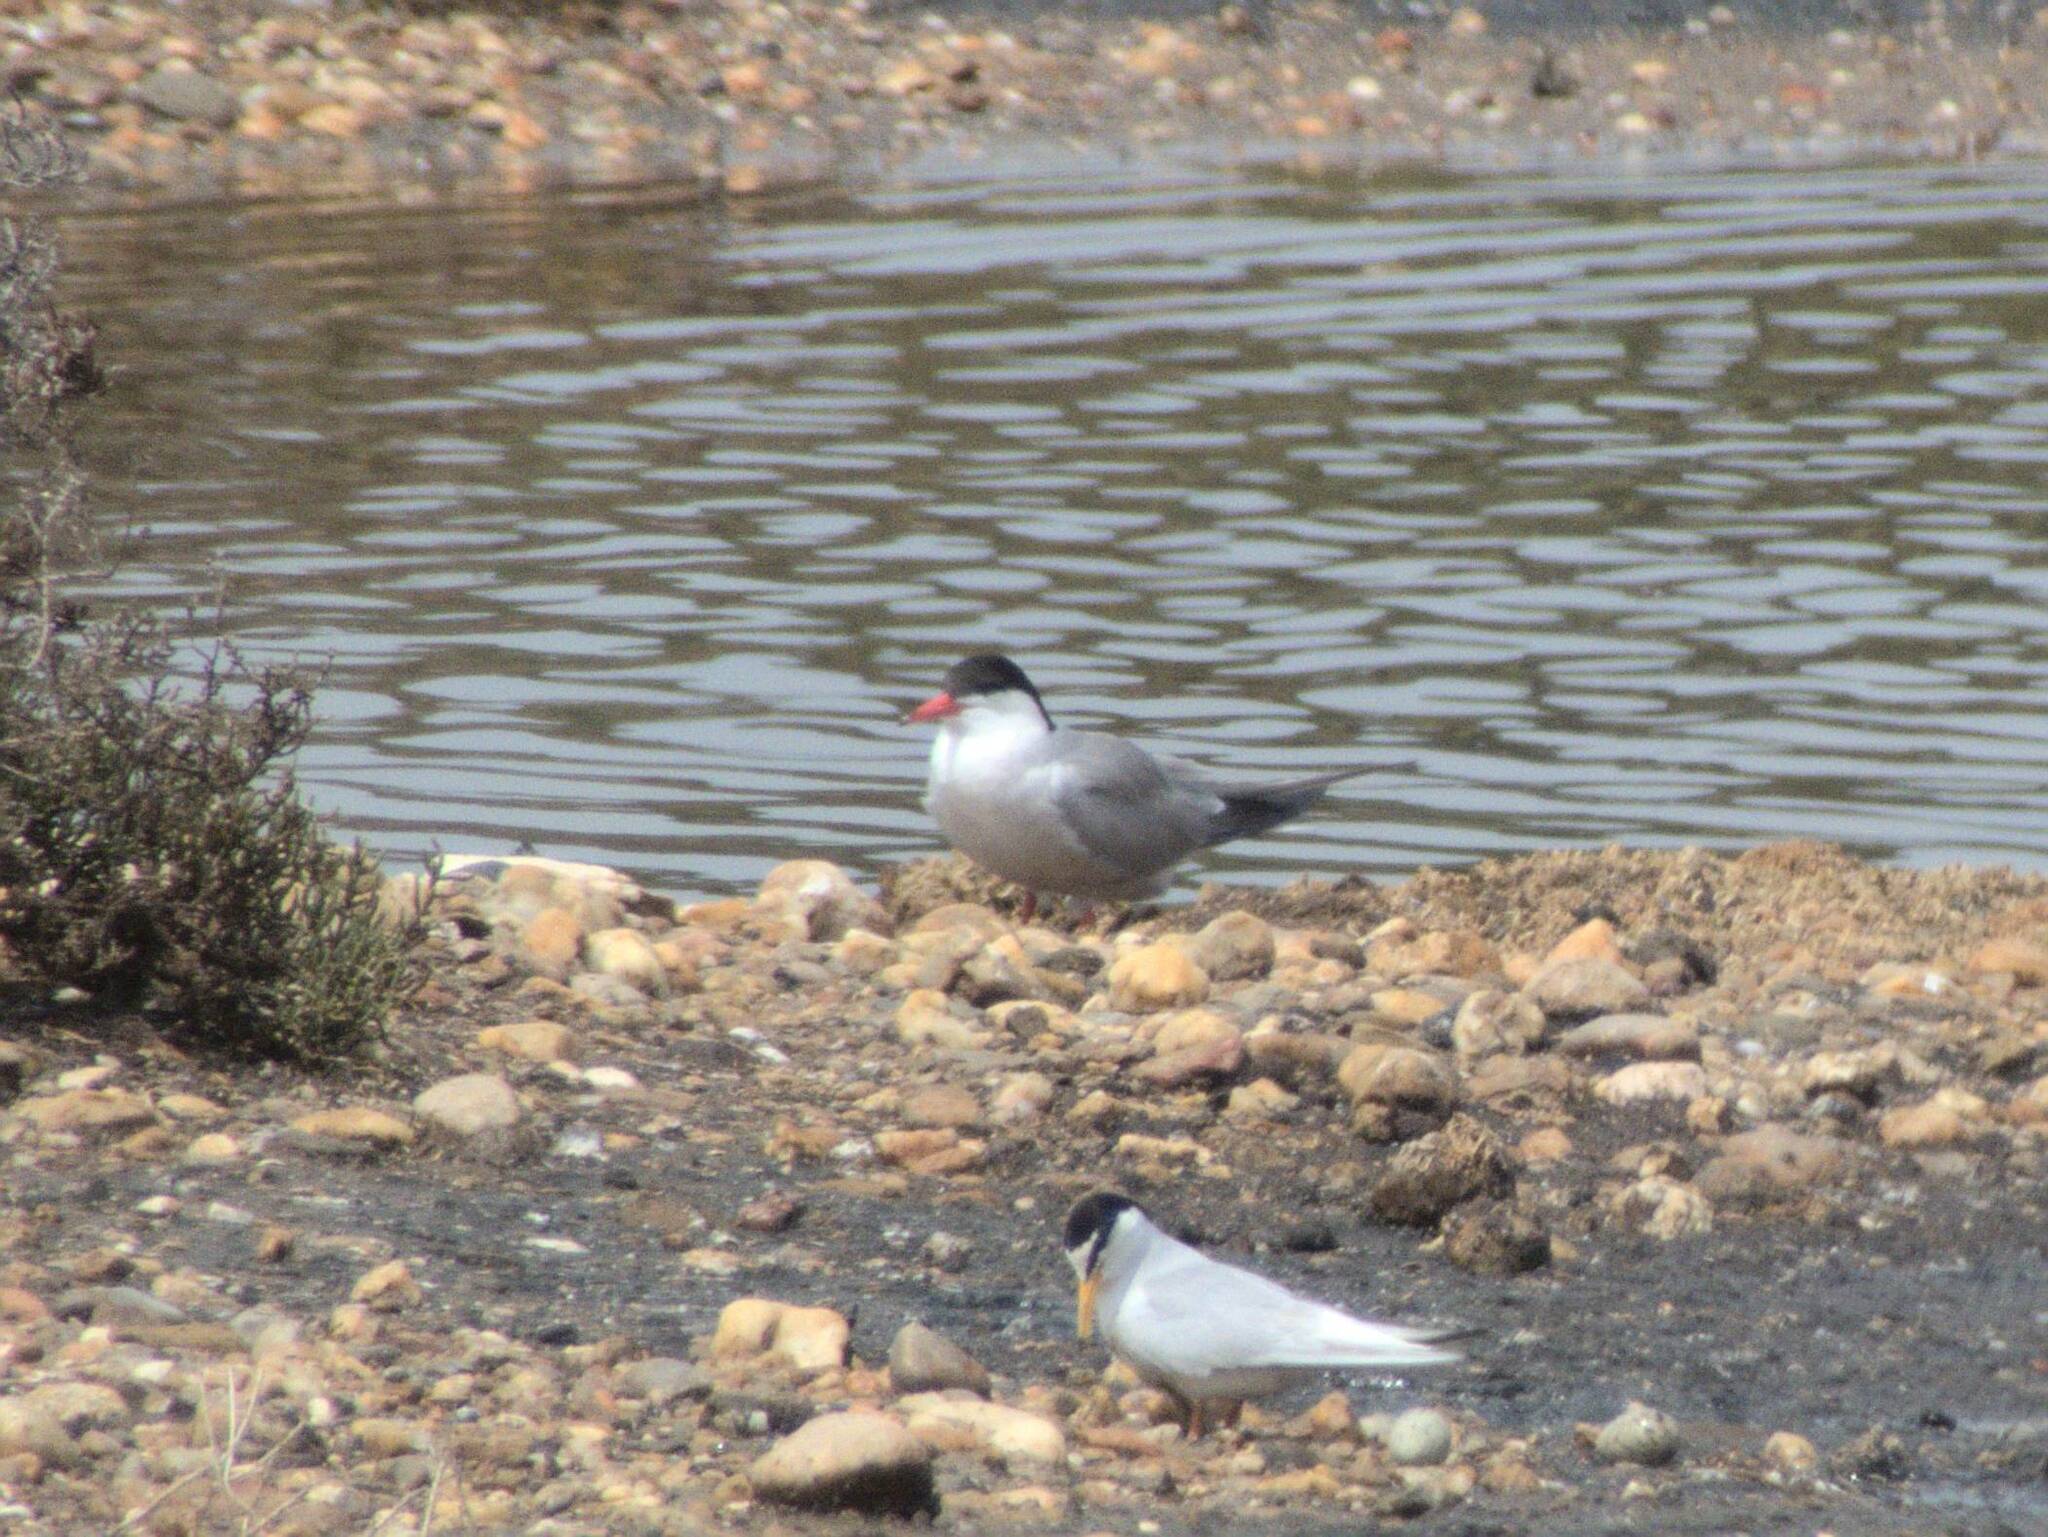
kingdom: Animalia
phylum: Chordata
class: Aves
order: Charadriiformes
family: Laridae
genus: Sterna
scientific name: Sterna hirundo
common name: Common tern
